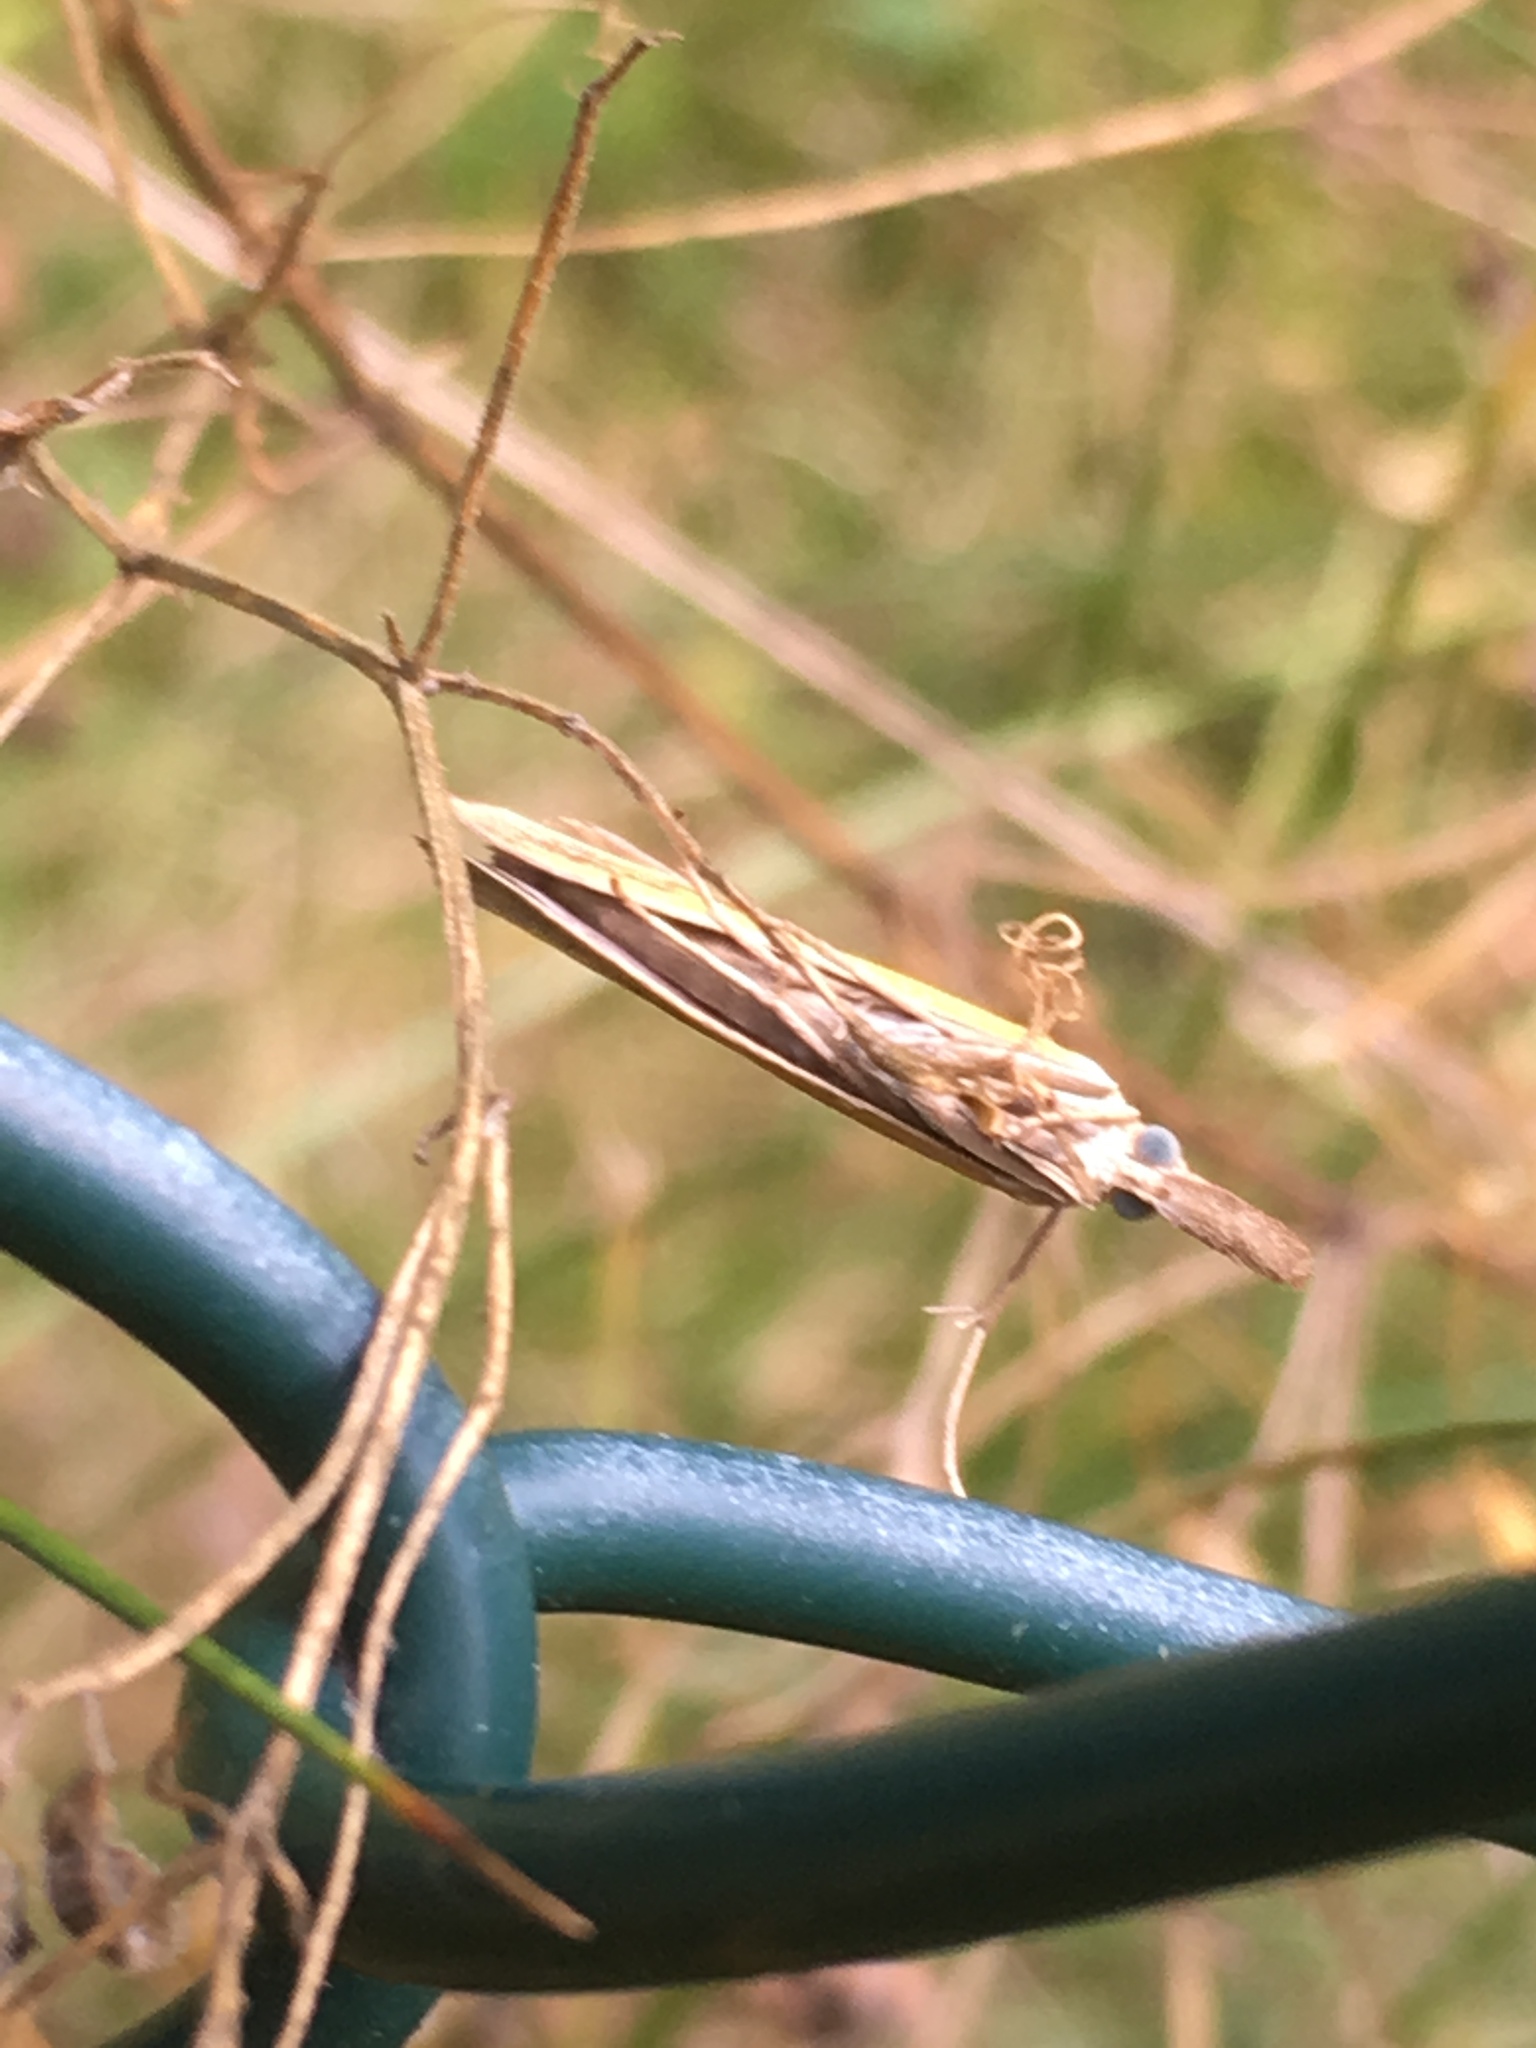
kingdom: Animalia
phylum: Arthropoda
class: Insecta
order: Lepidoptera
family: Crambidae
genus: Agriphila
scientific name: Agriphila tristellus
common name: Common grass-veneer
